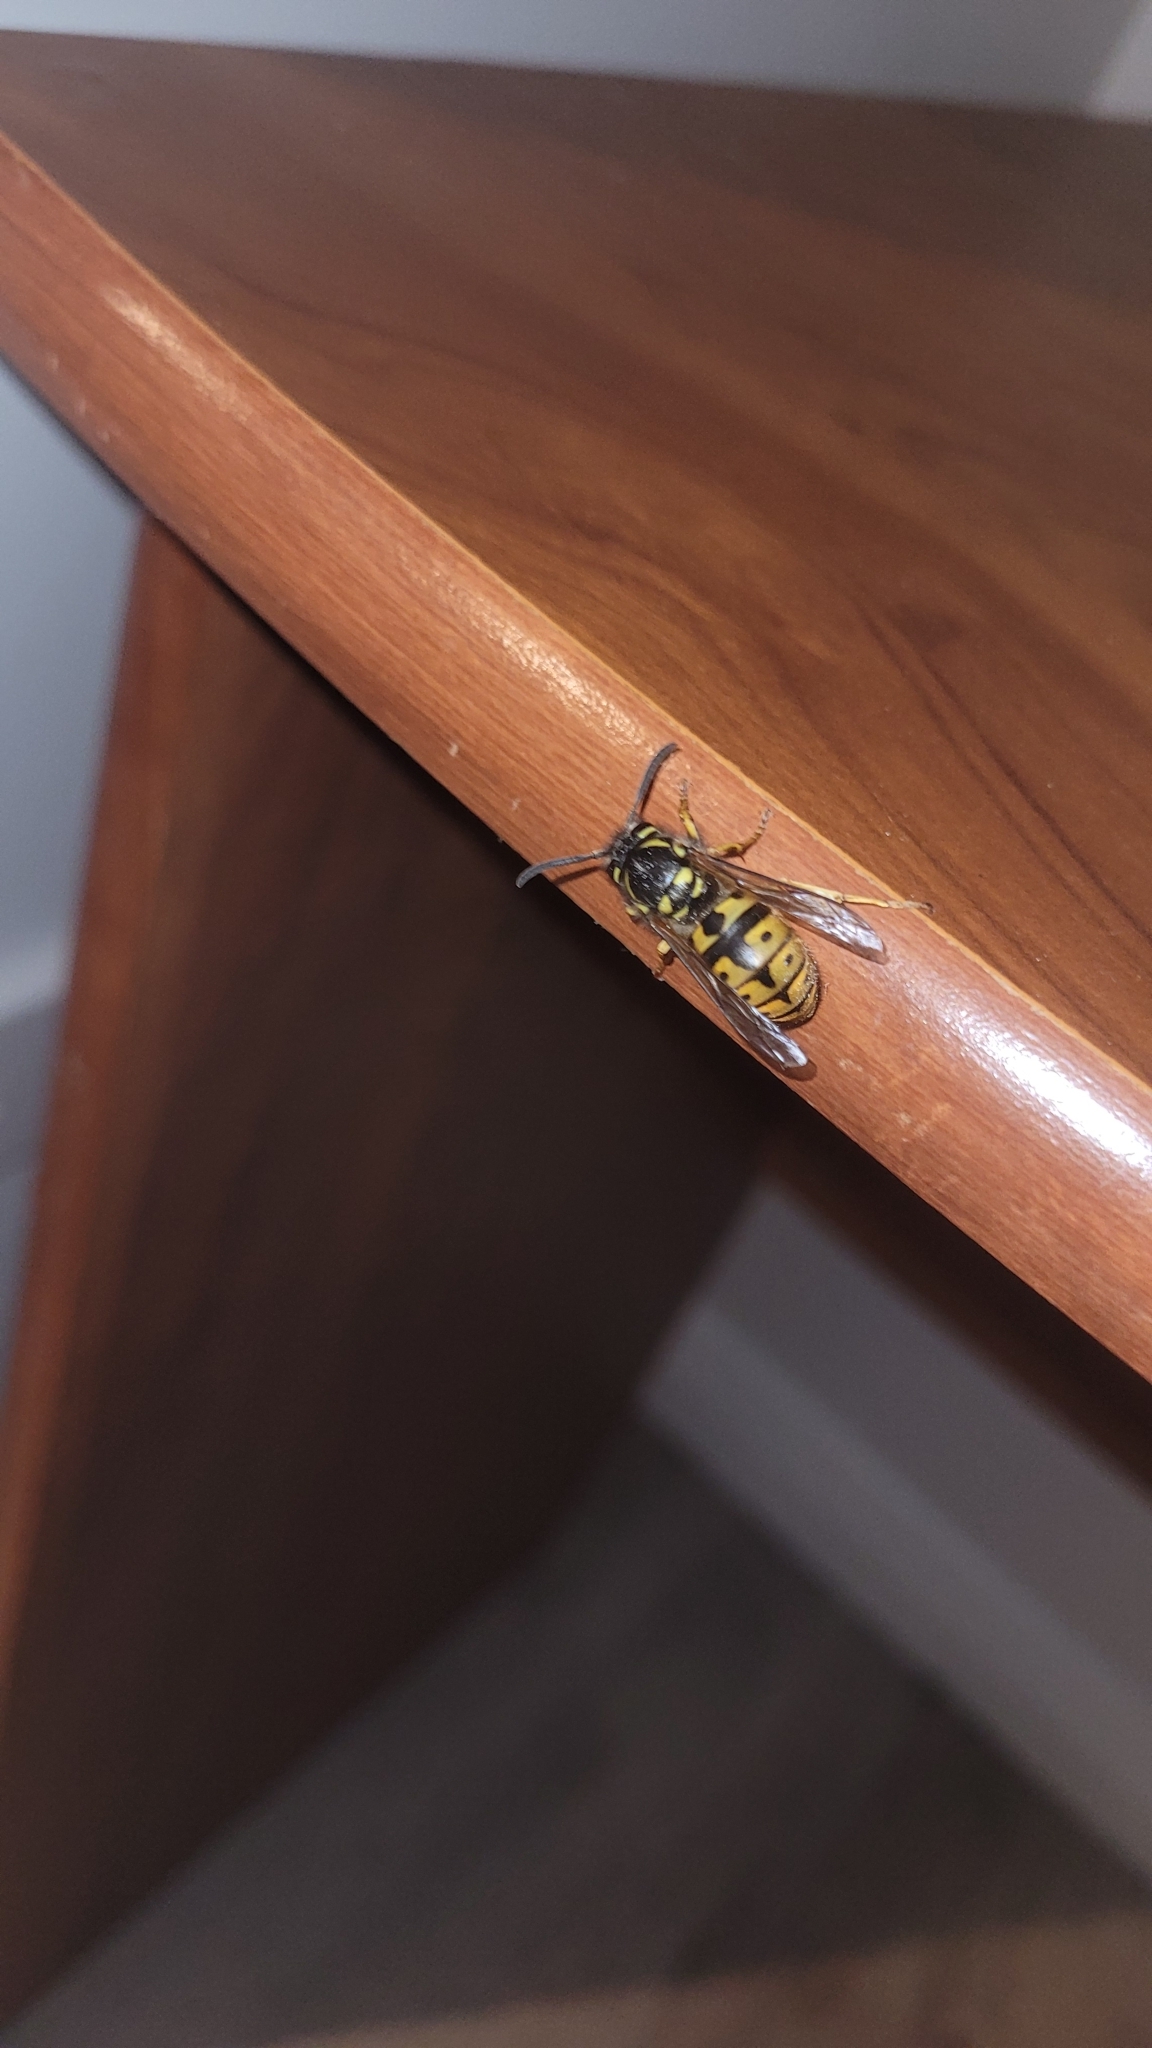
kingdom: Animalia
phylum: Arthropoda
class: Insecta
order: Hymenoptera
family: Vespidae
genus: Vespula
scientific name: Vespula germanica
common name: German wasp
